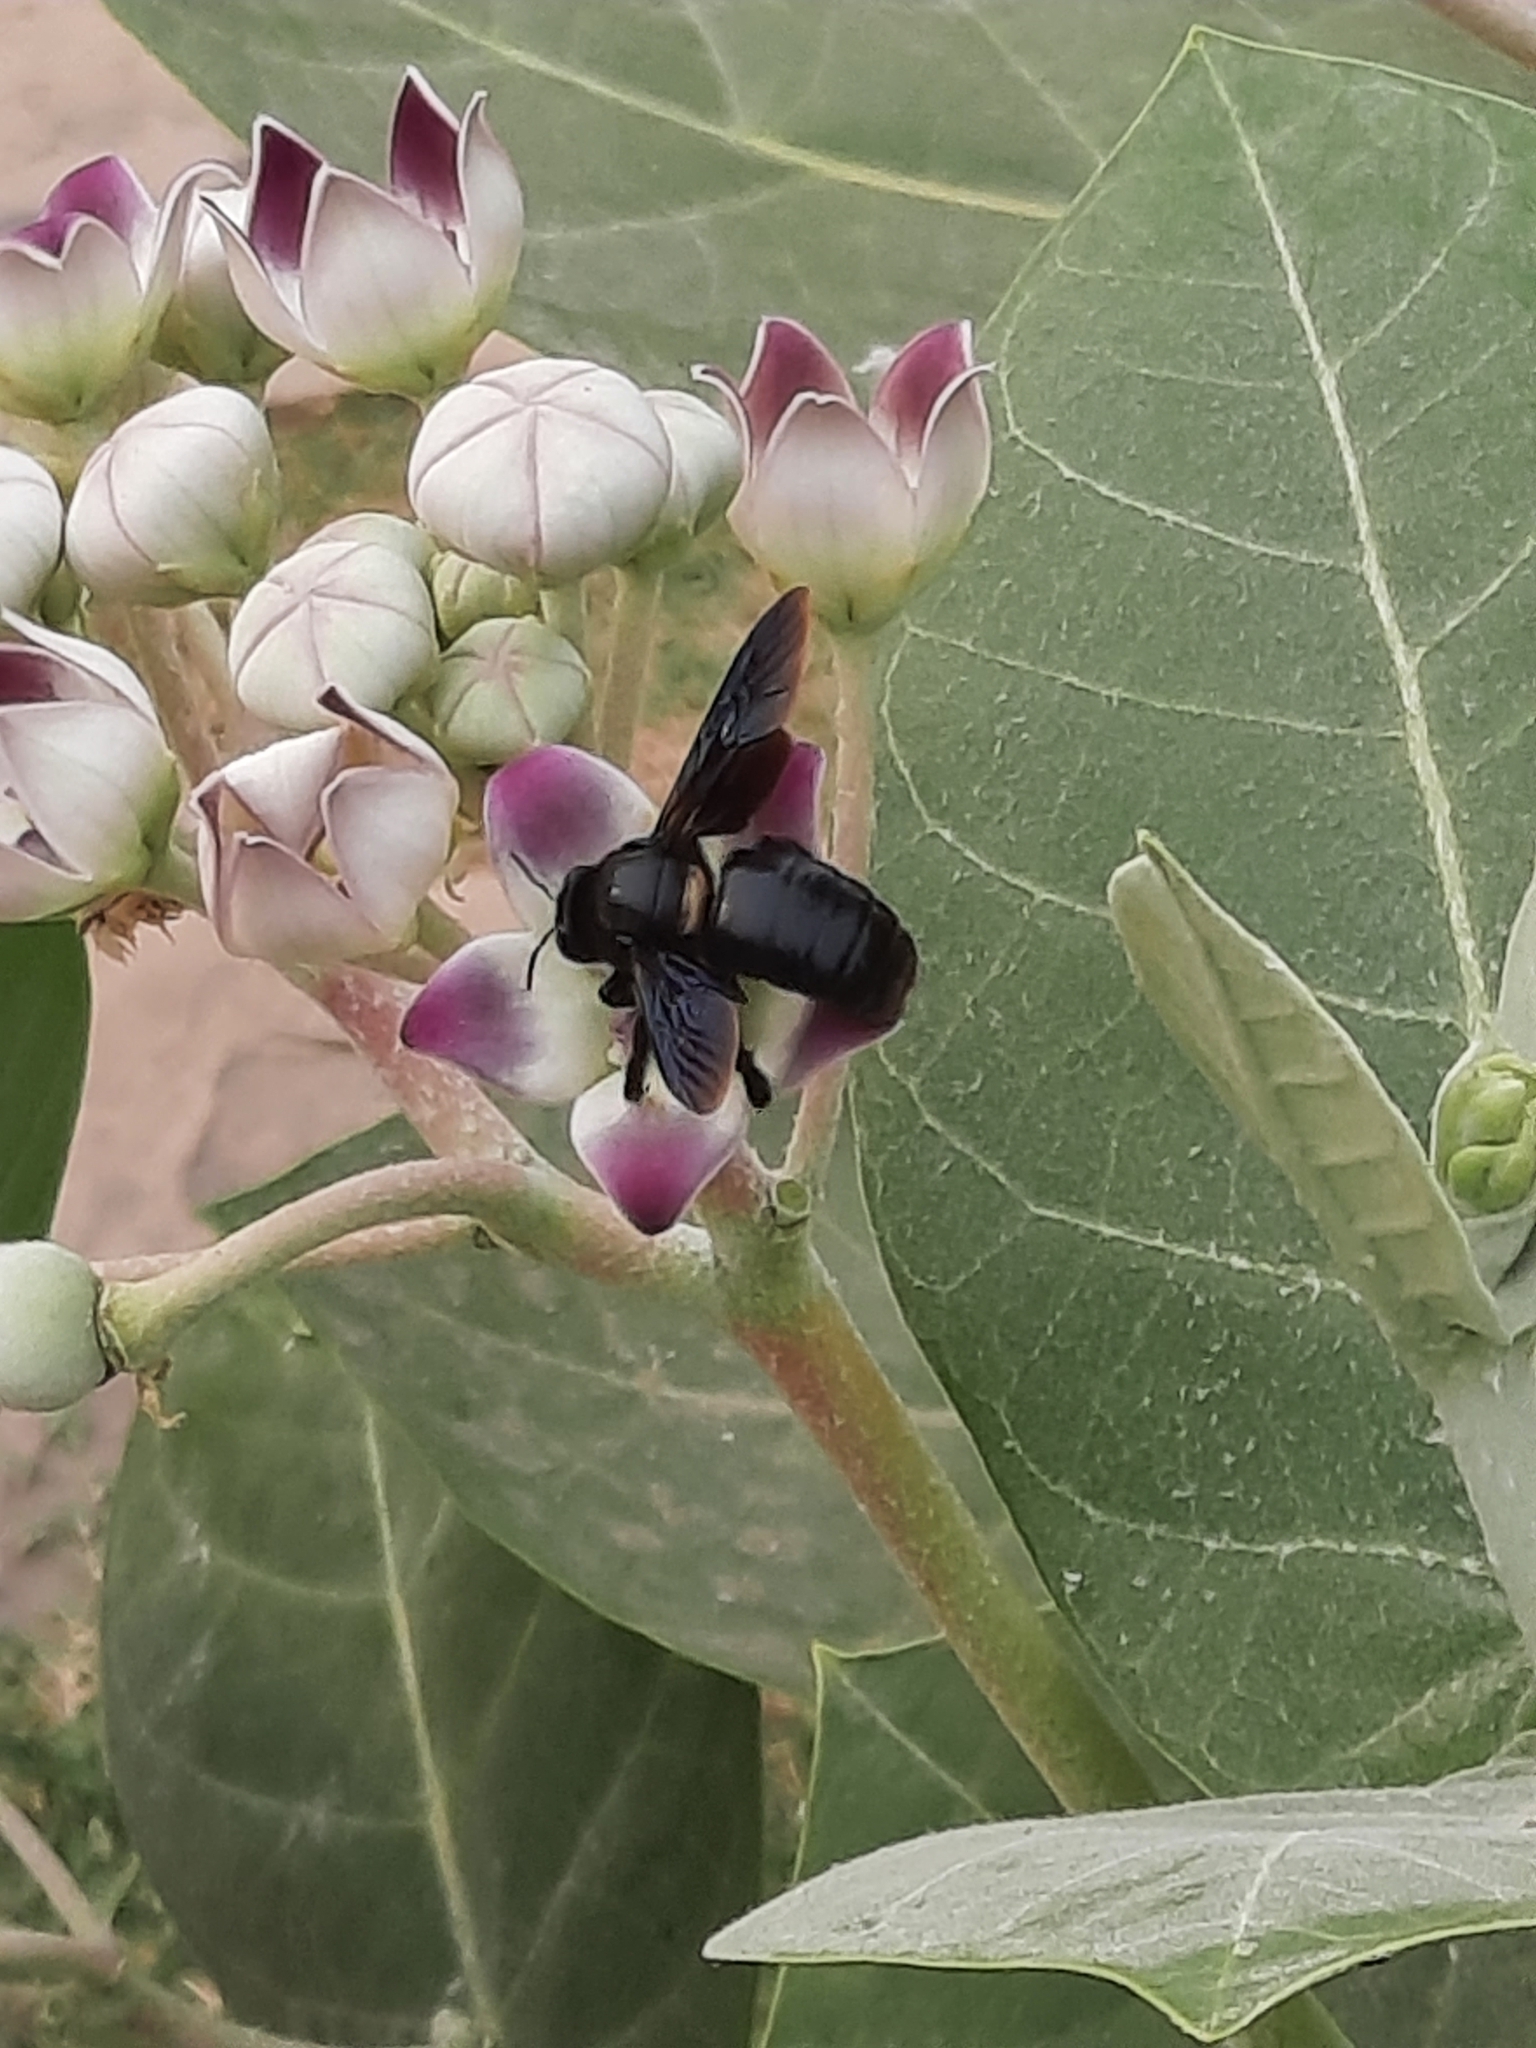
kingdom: Animalia
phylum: Arthropoda
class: Insecta
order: Hymenoptera
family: Apidae
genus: Xylocopa
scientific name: Xylocopa fenestrata
